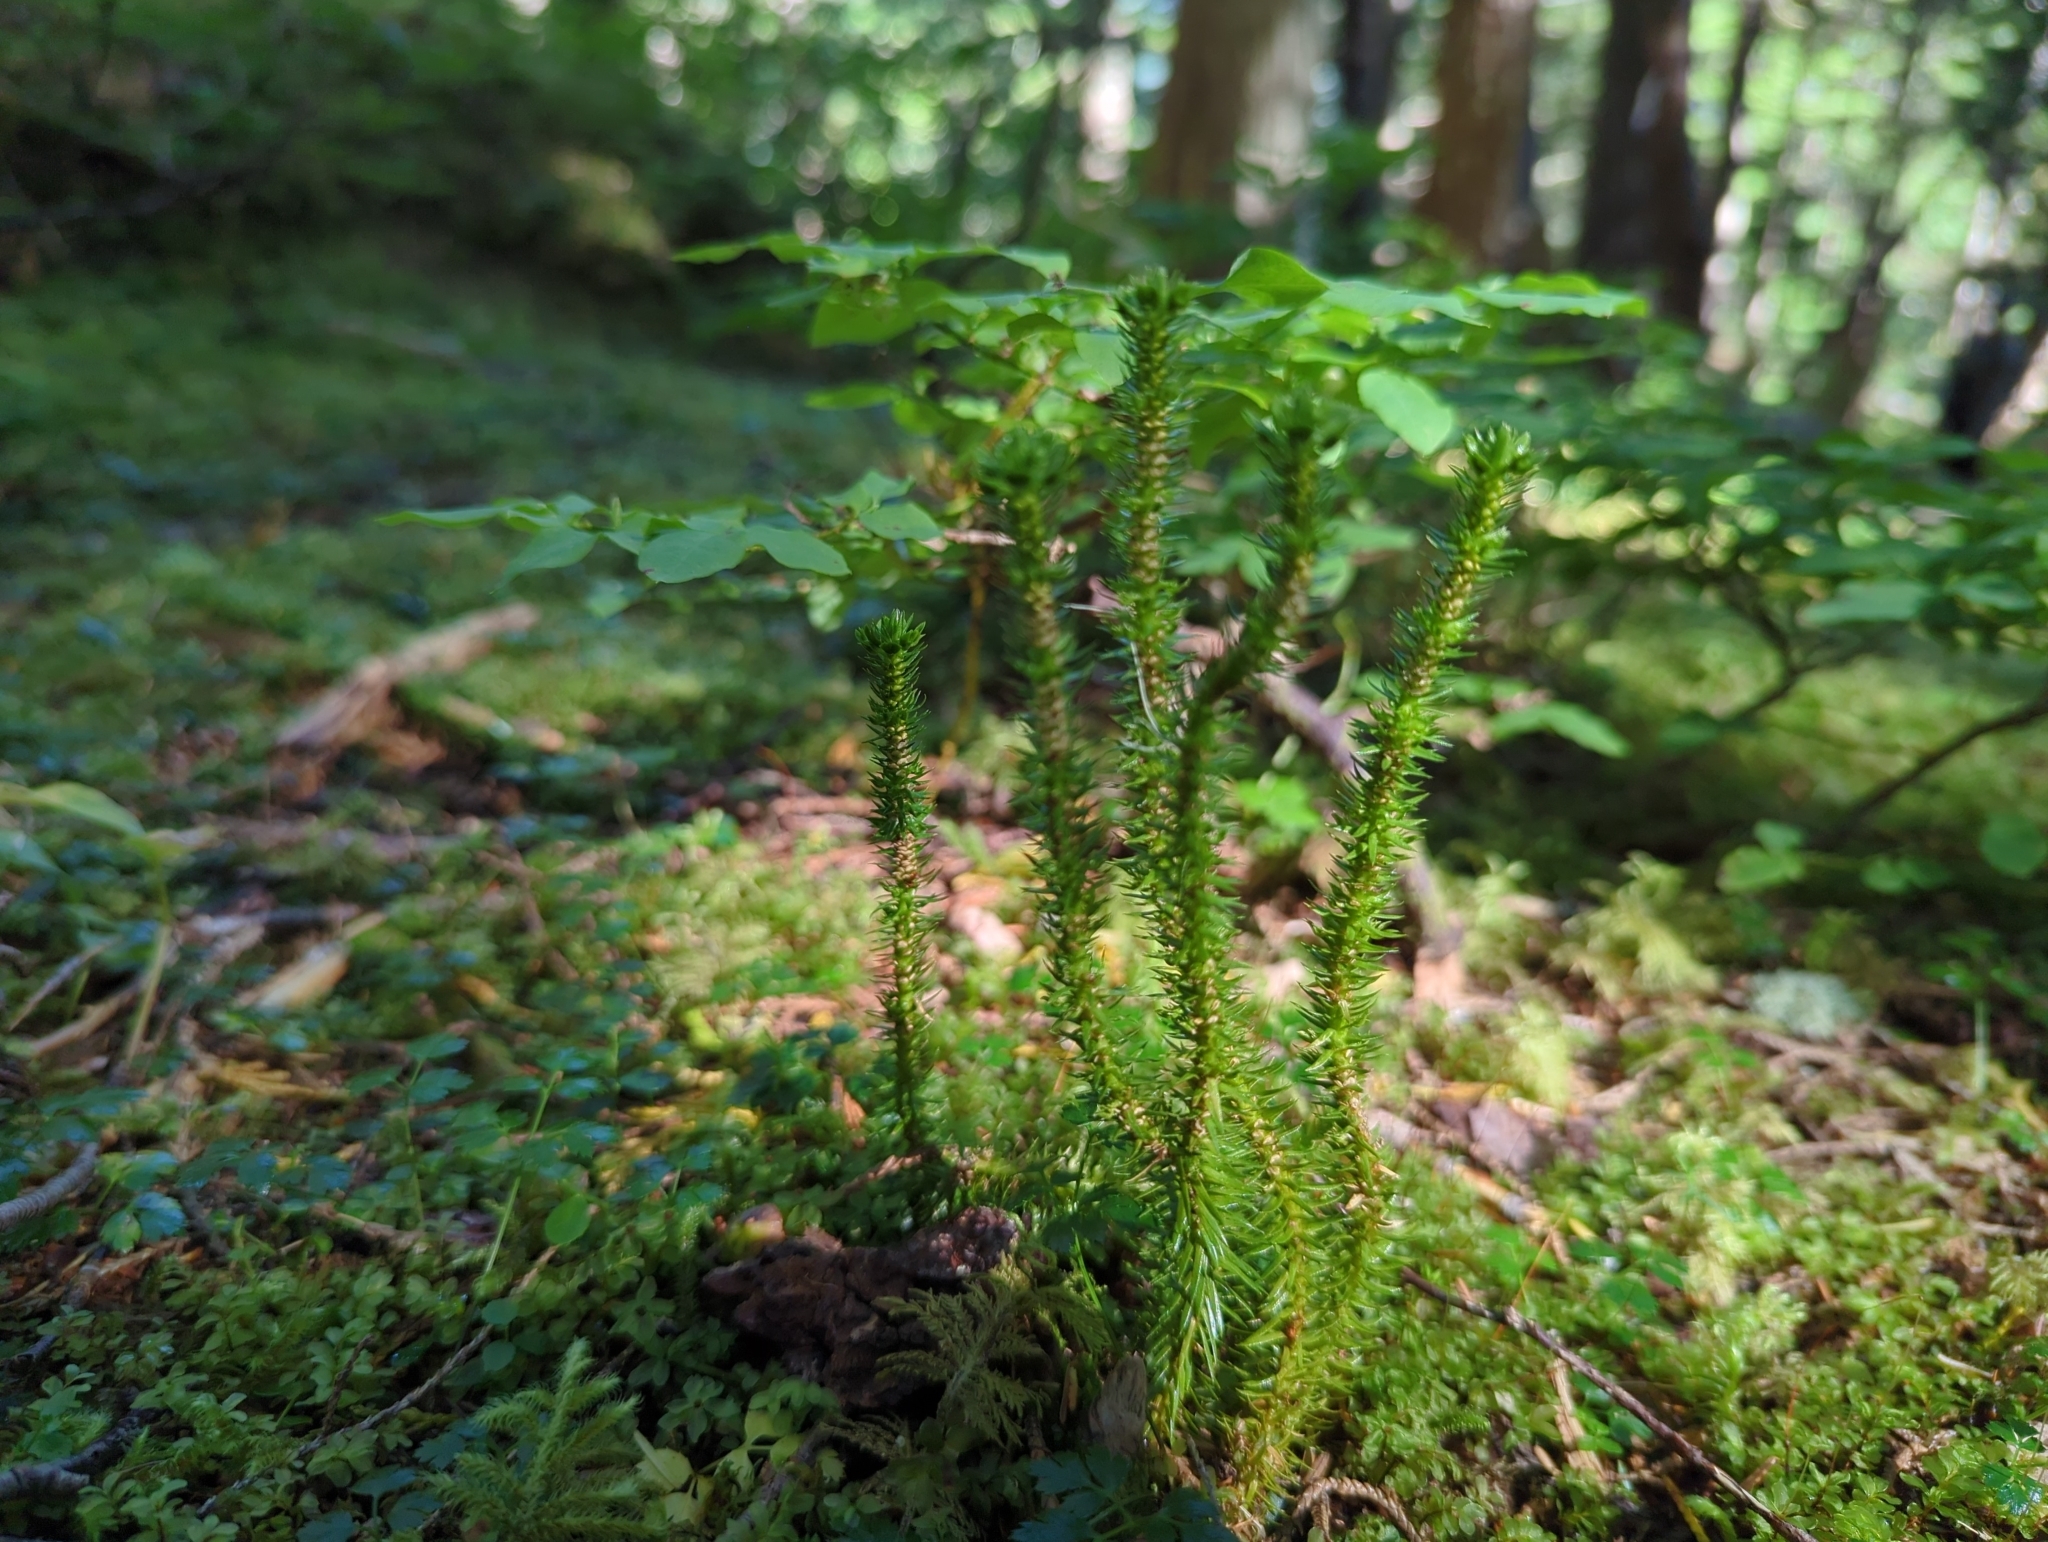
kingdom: Plantae
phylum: Tracheophyta
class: Lycopodiopsida
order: Lycopodiales
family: Lycopodiaceae
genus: Huperzia
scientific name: Huperzia miyoshiana
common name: Chinese clubmoss
